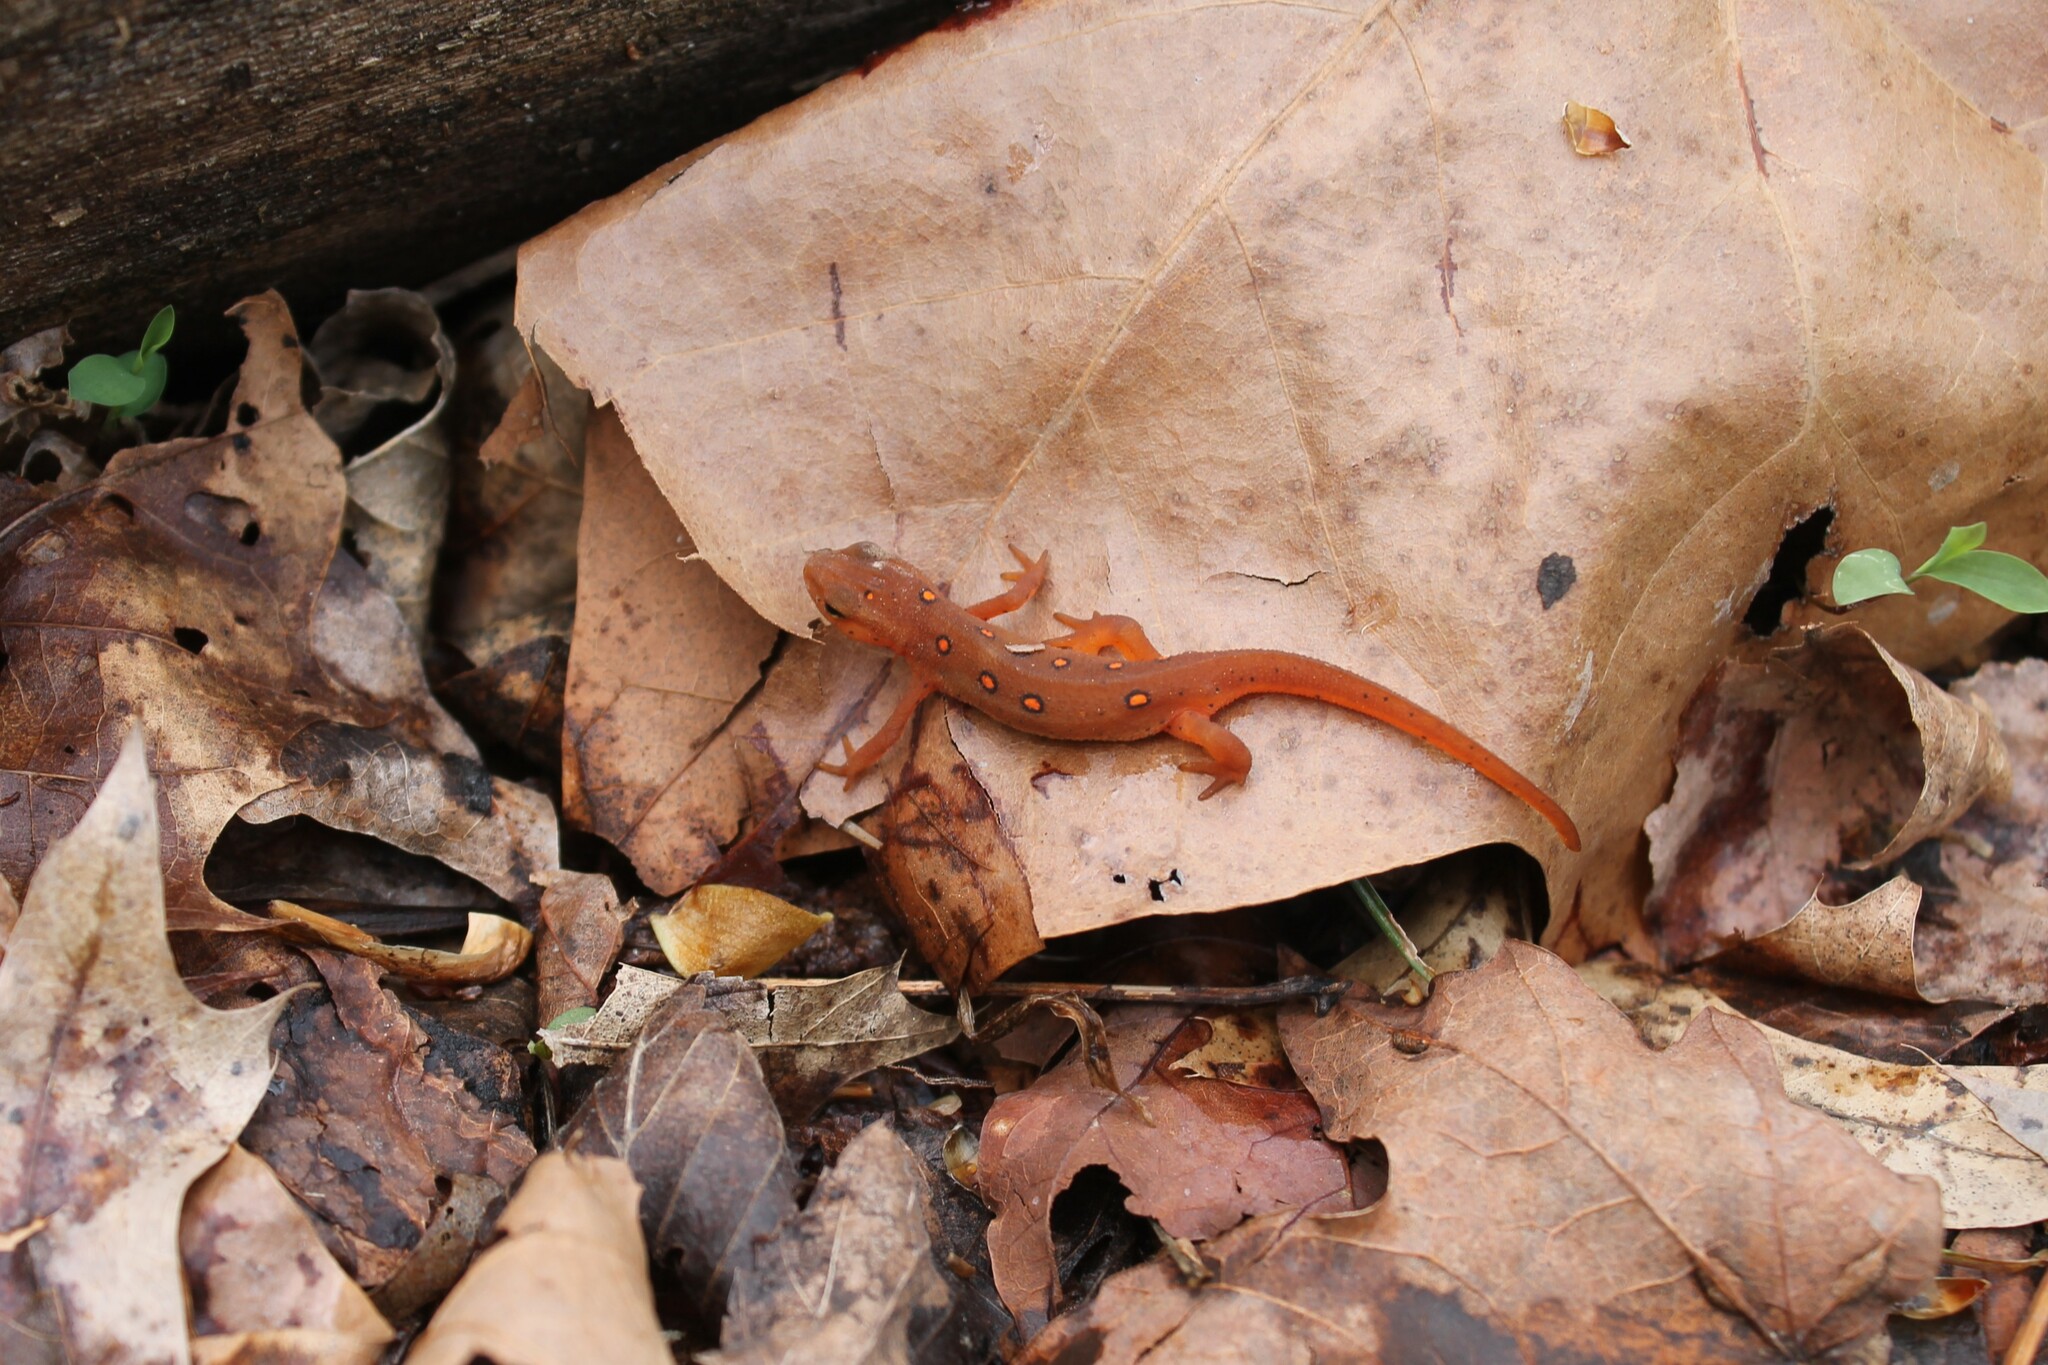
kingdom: Animalia
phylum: Chordata
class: Amphibia
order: Caudata
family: Salamandridae
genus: Notophthalmus
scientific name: Notophthalmus viridescens
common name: Eastern newt
